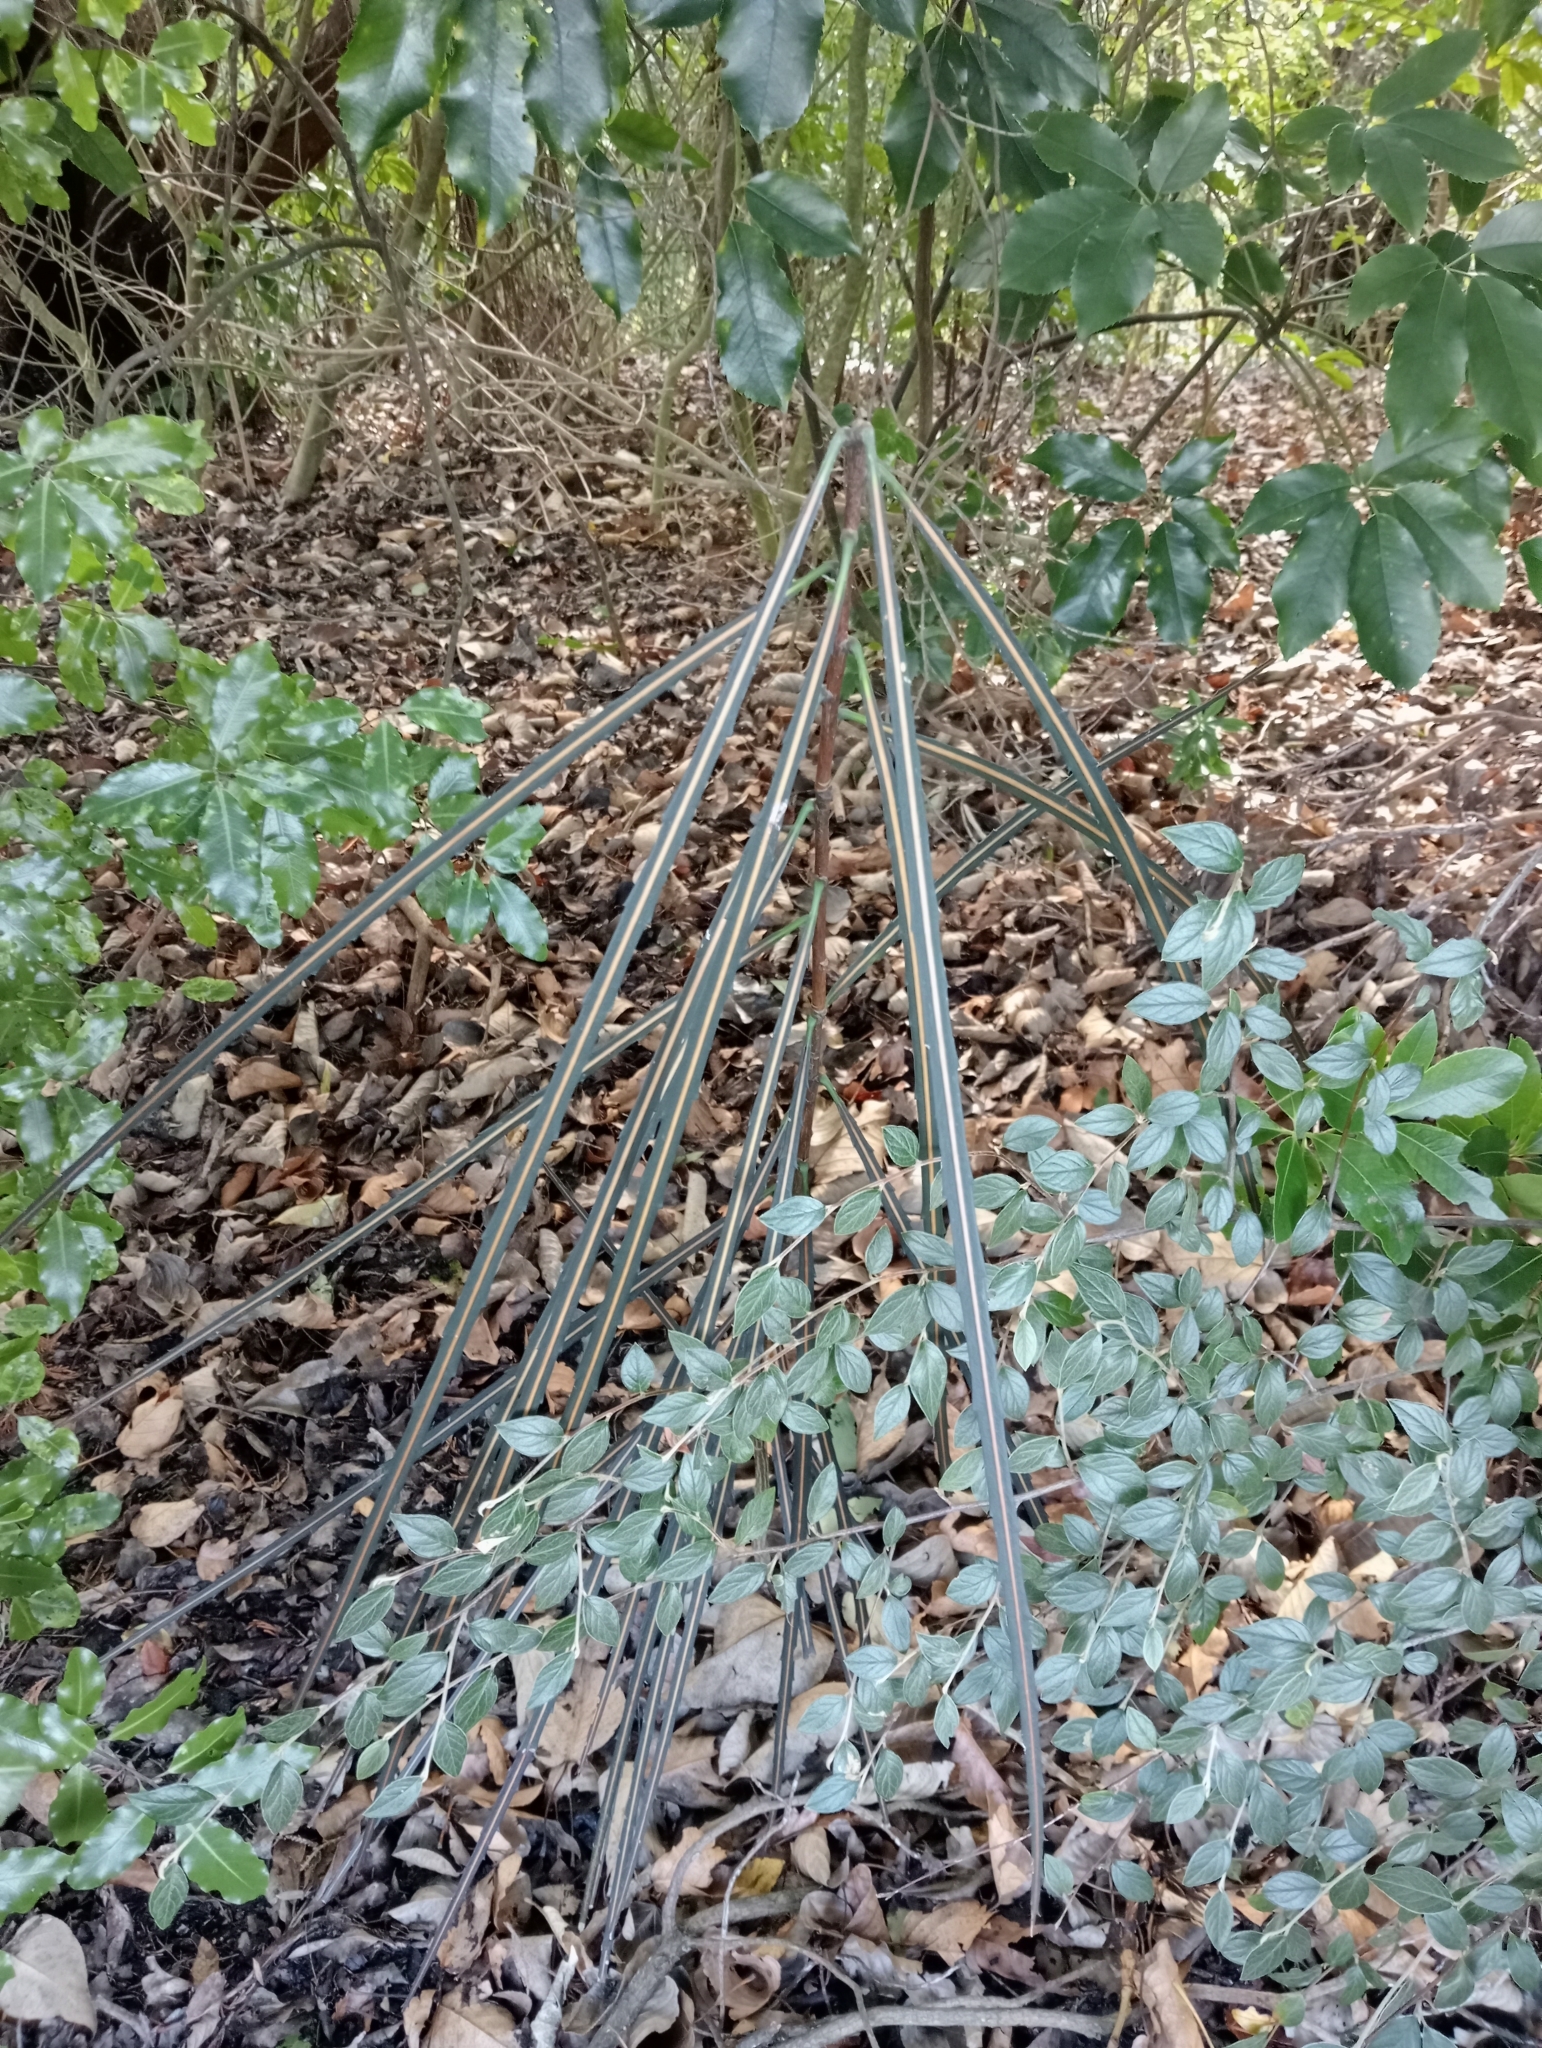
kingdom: Plantae
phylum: Tracheophyta
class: Magnoliopsida
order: Apiales
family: Araliaceae
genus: Pseudopanax
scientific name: Pseudopanax crassifolius
